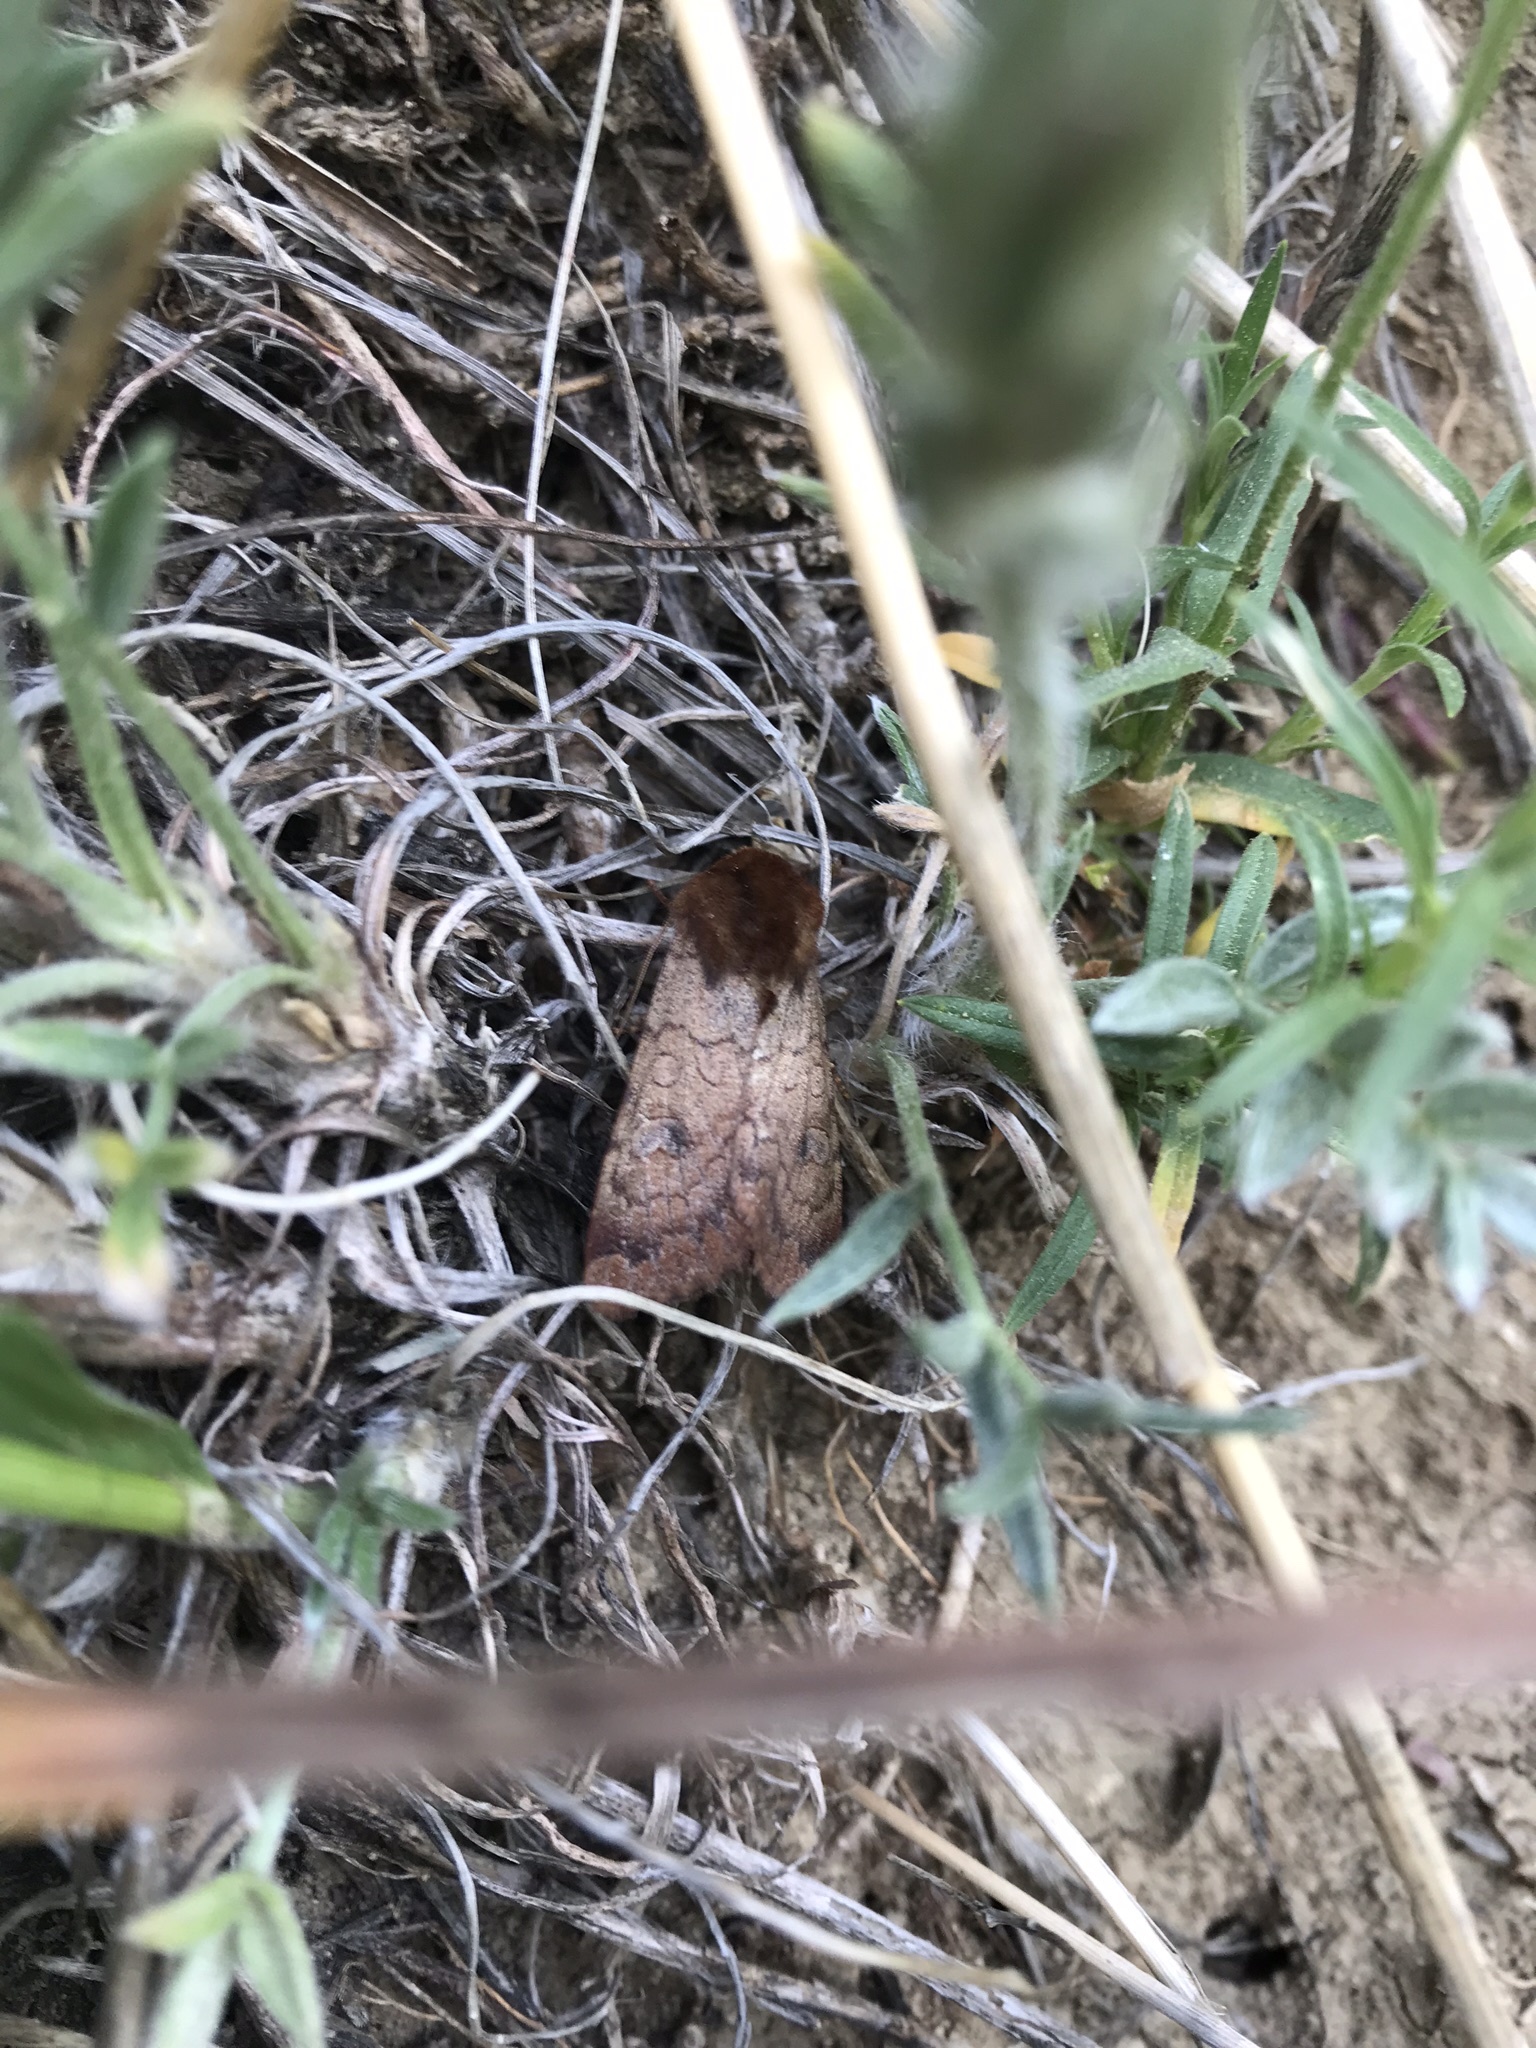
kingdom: Animalia
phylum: Arthropoda
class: Insecta
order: Lepidoptera
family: Noctuidae
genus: Sideridis
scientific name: Sideridis rosea
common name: Rosewing moth
